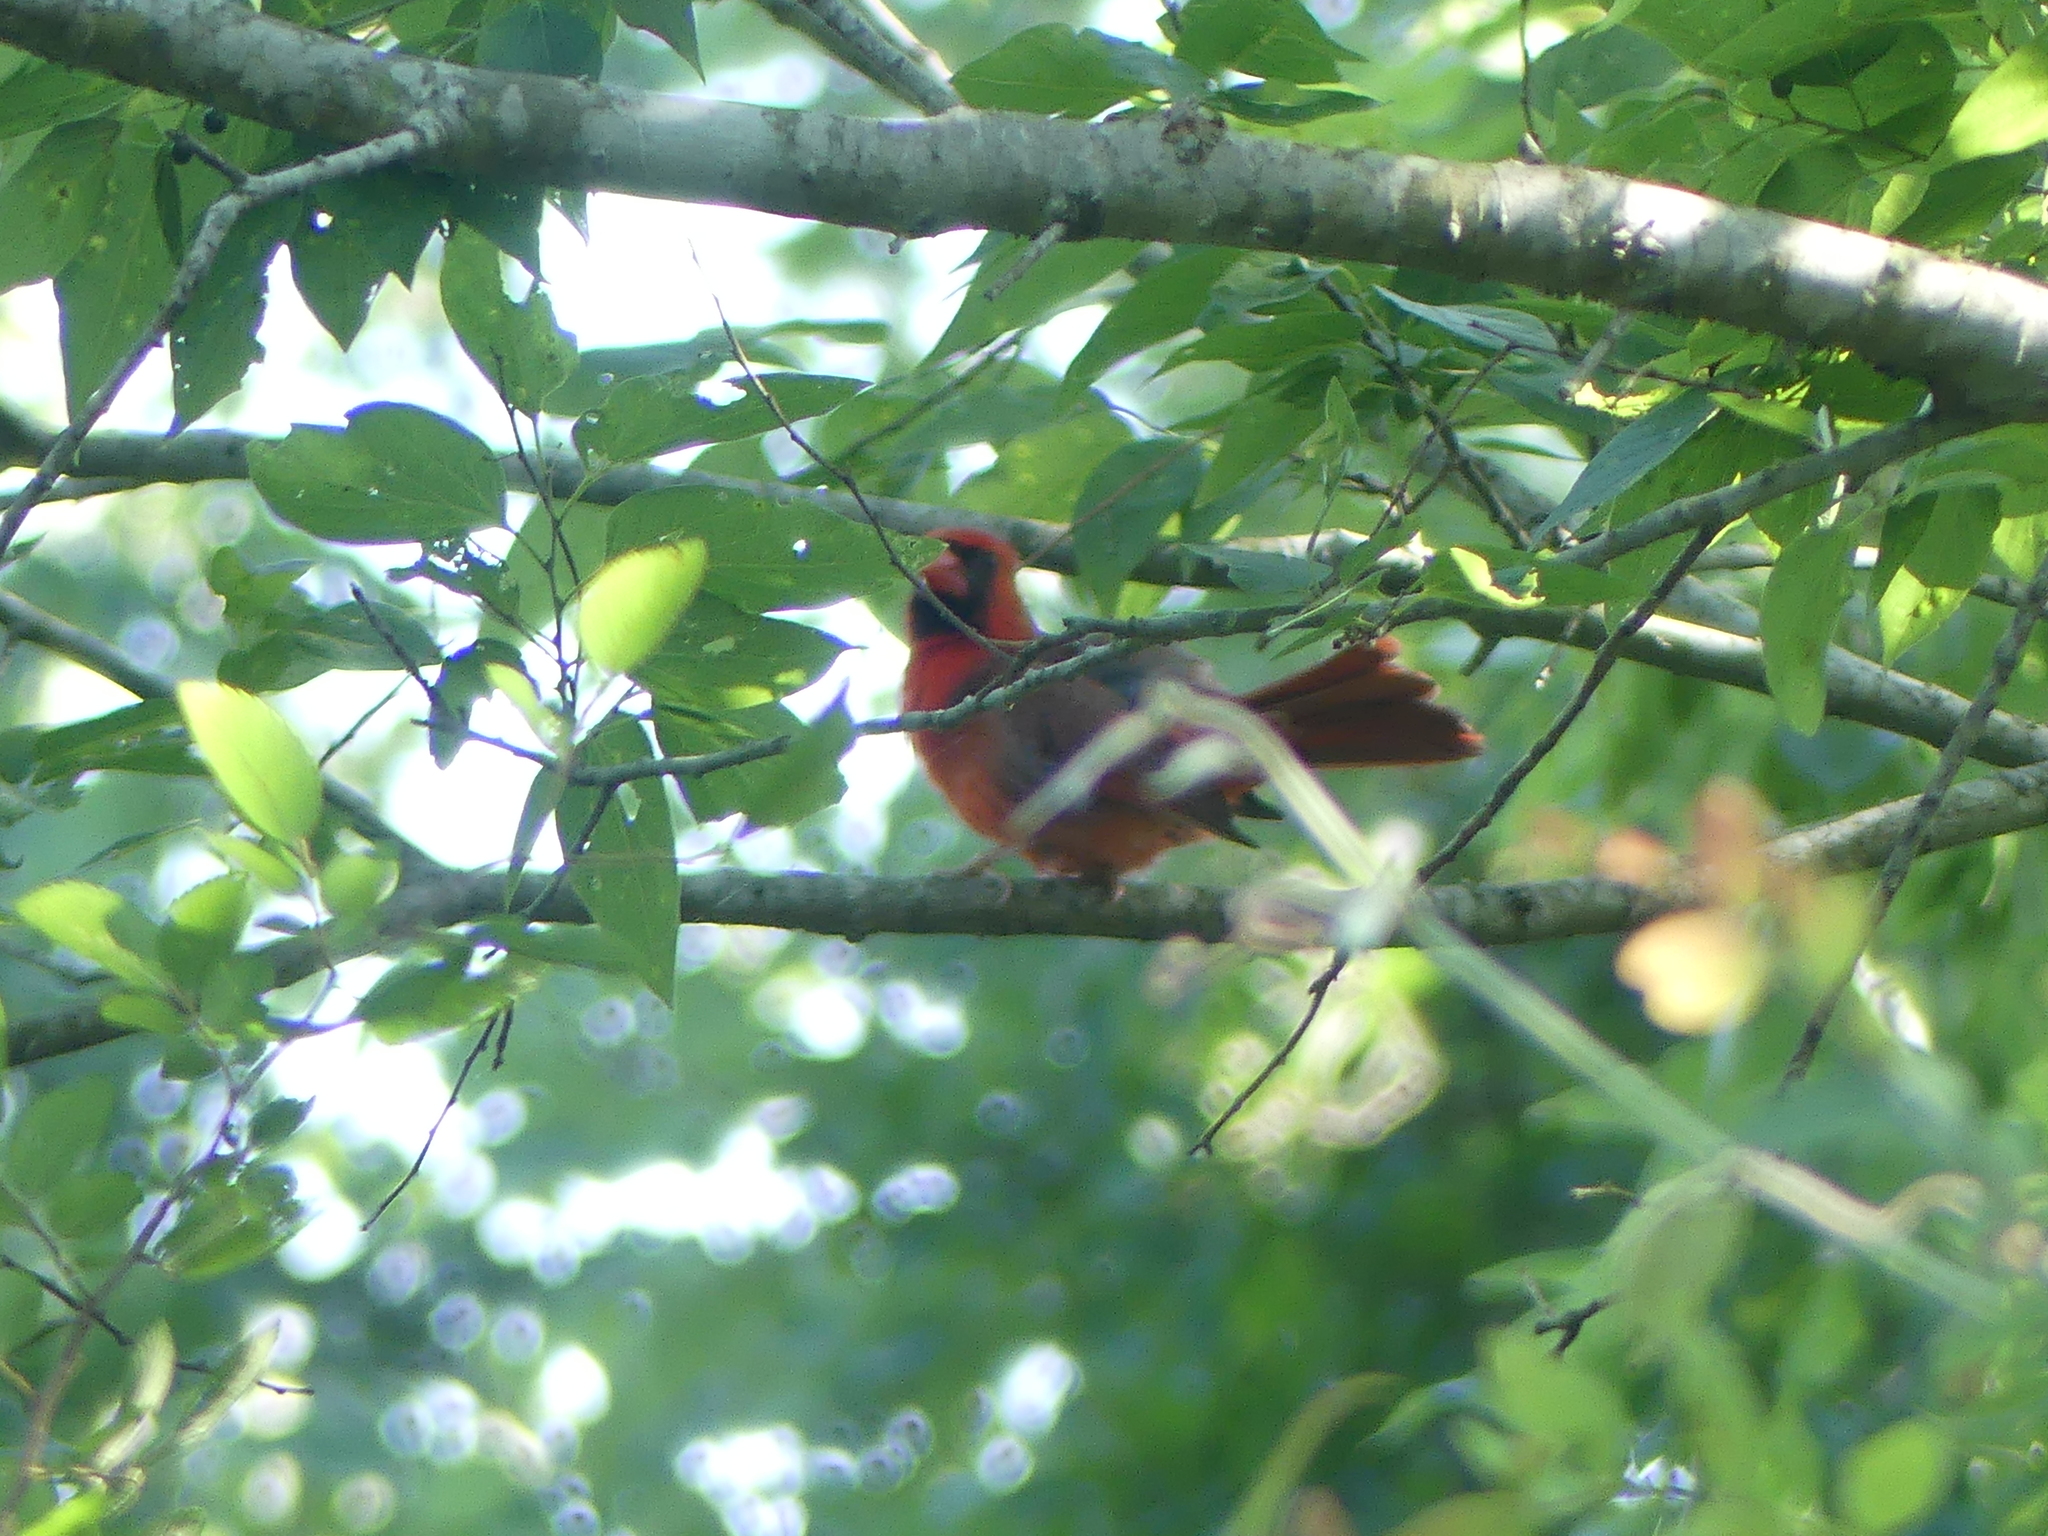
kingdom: Animalia
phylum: Chordata
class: Aves
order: Passeriformes
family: Cardinalidae
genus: Cardinalis
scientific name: Cardinalis cardinalis
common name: Northern cardinal
